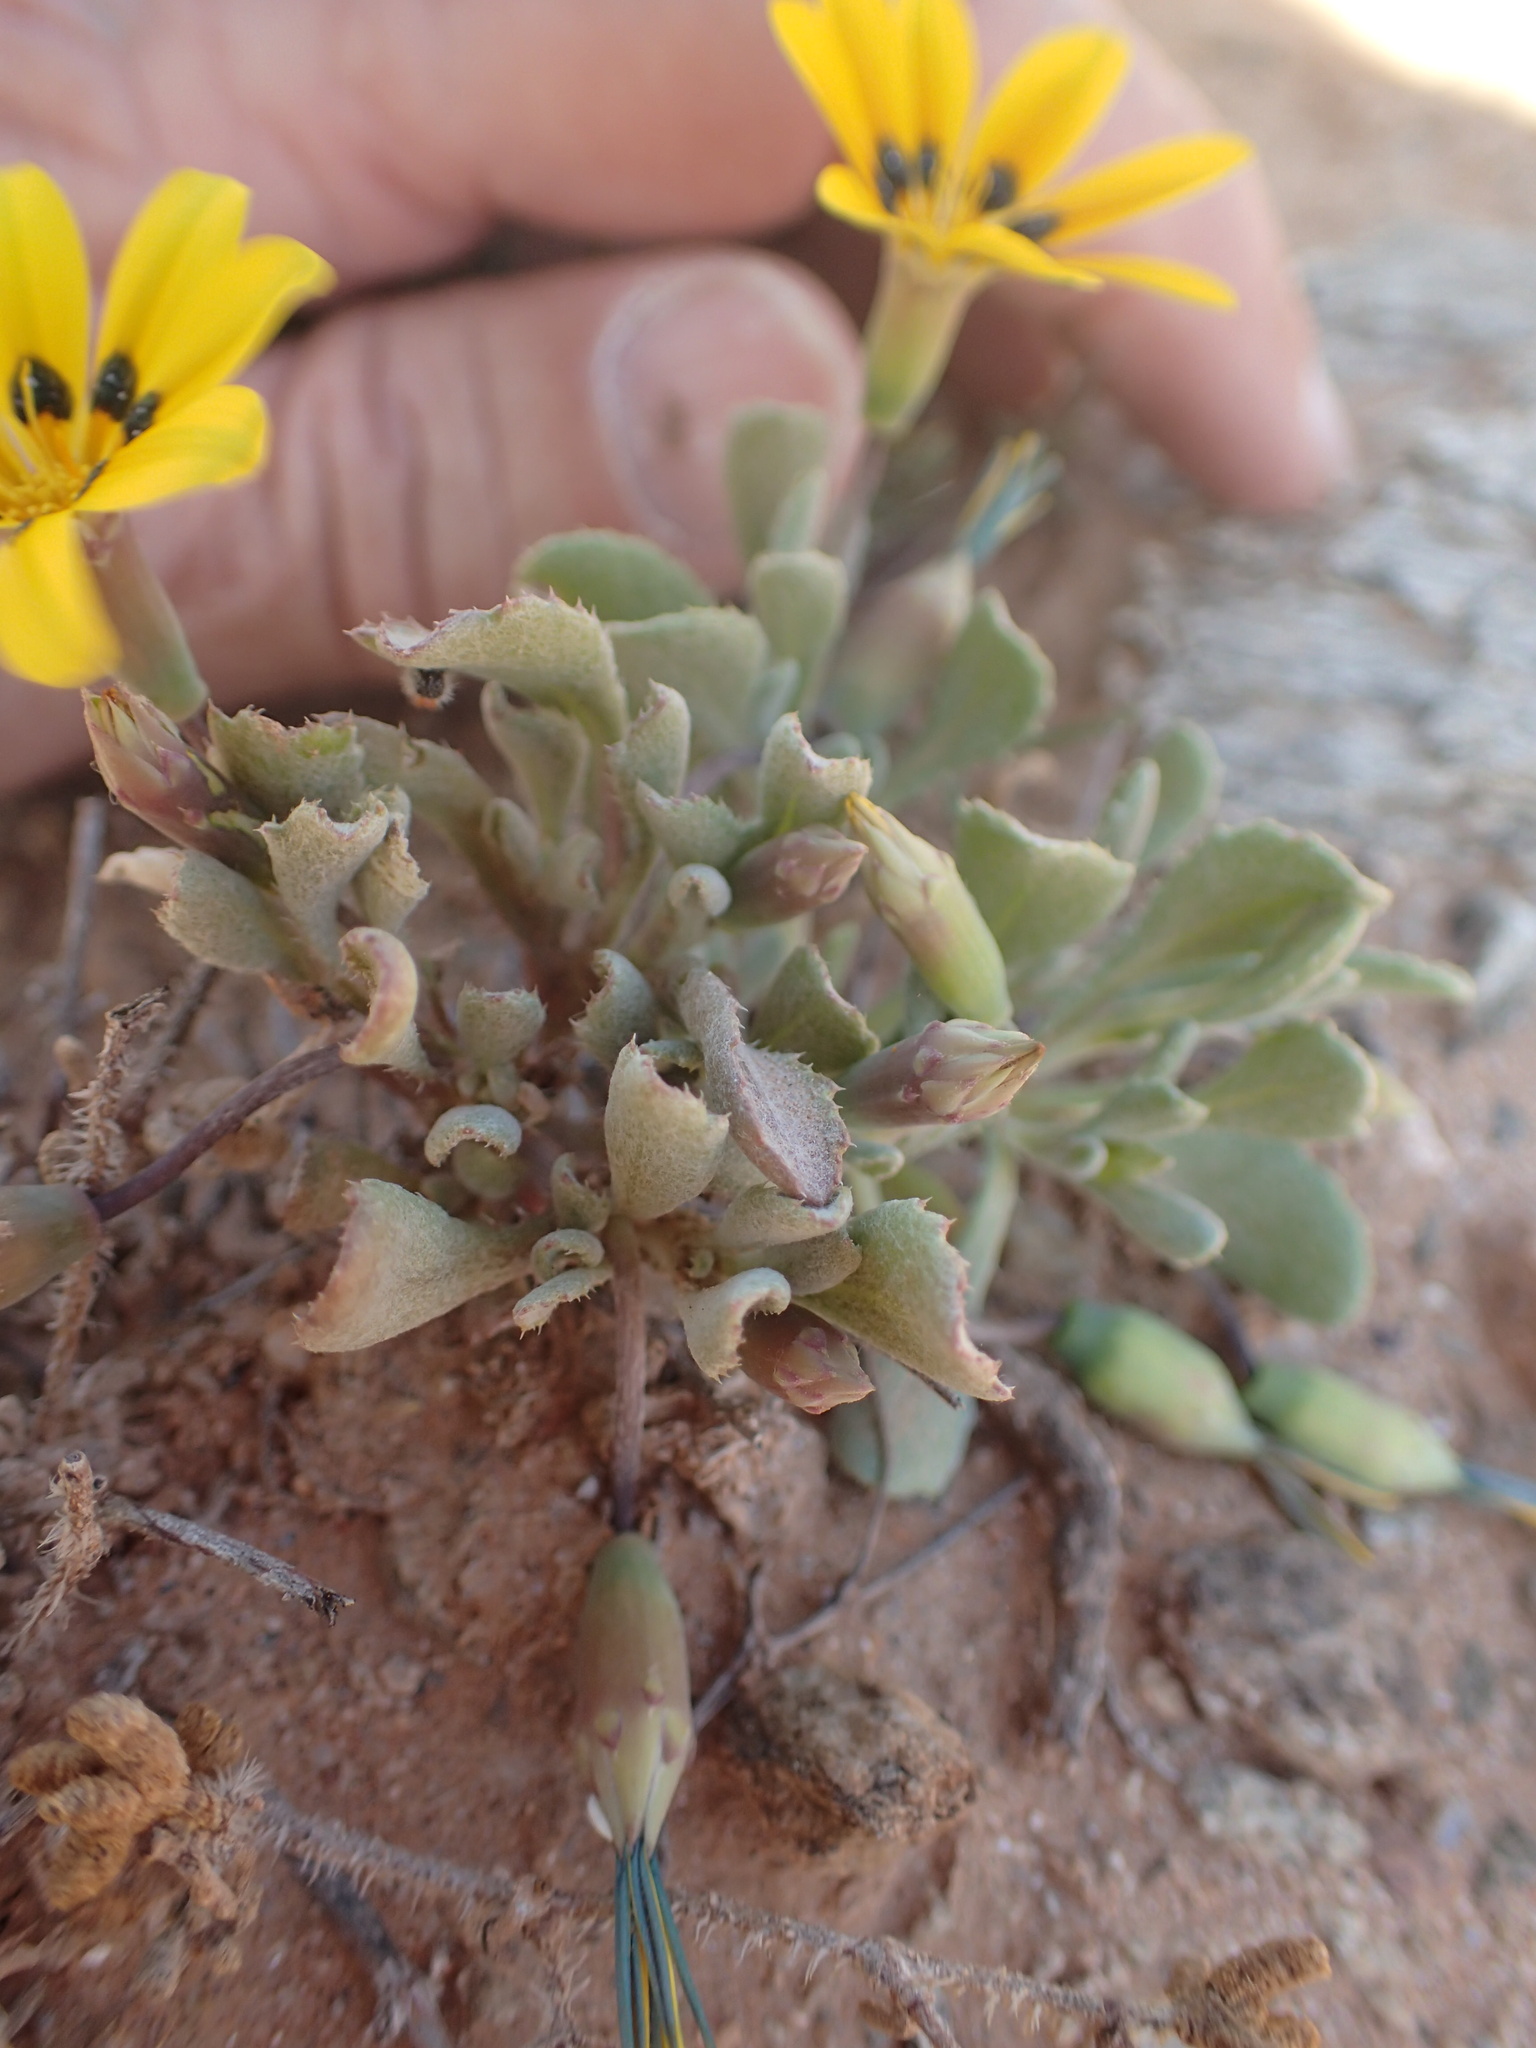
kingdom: Plantae
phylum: Tracheophyta
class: Magnoliopsida
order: Asterales
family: Asteraceae
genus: Gazania
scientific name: Gazania lichtensteinii
